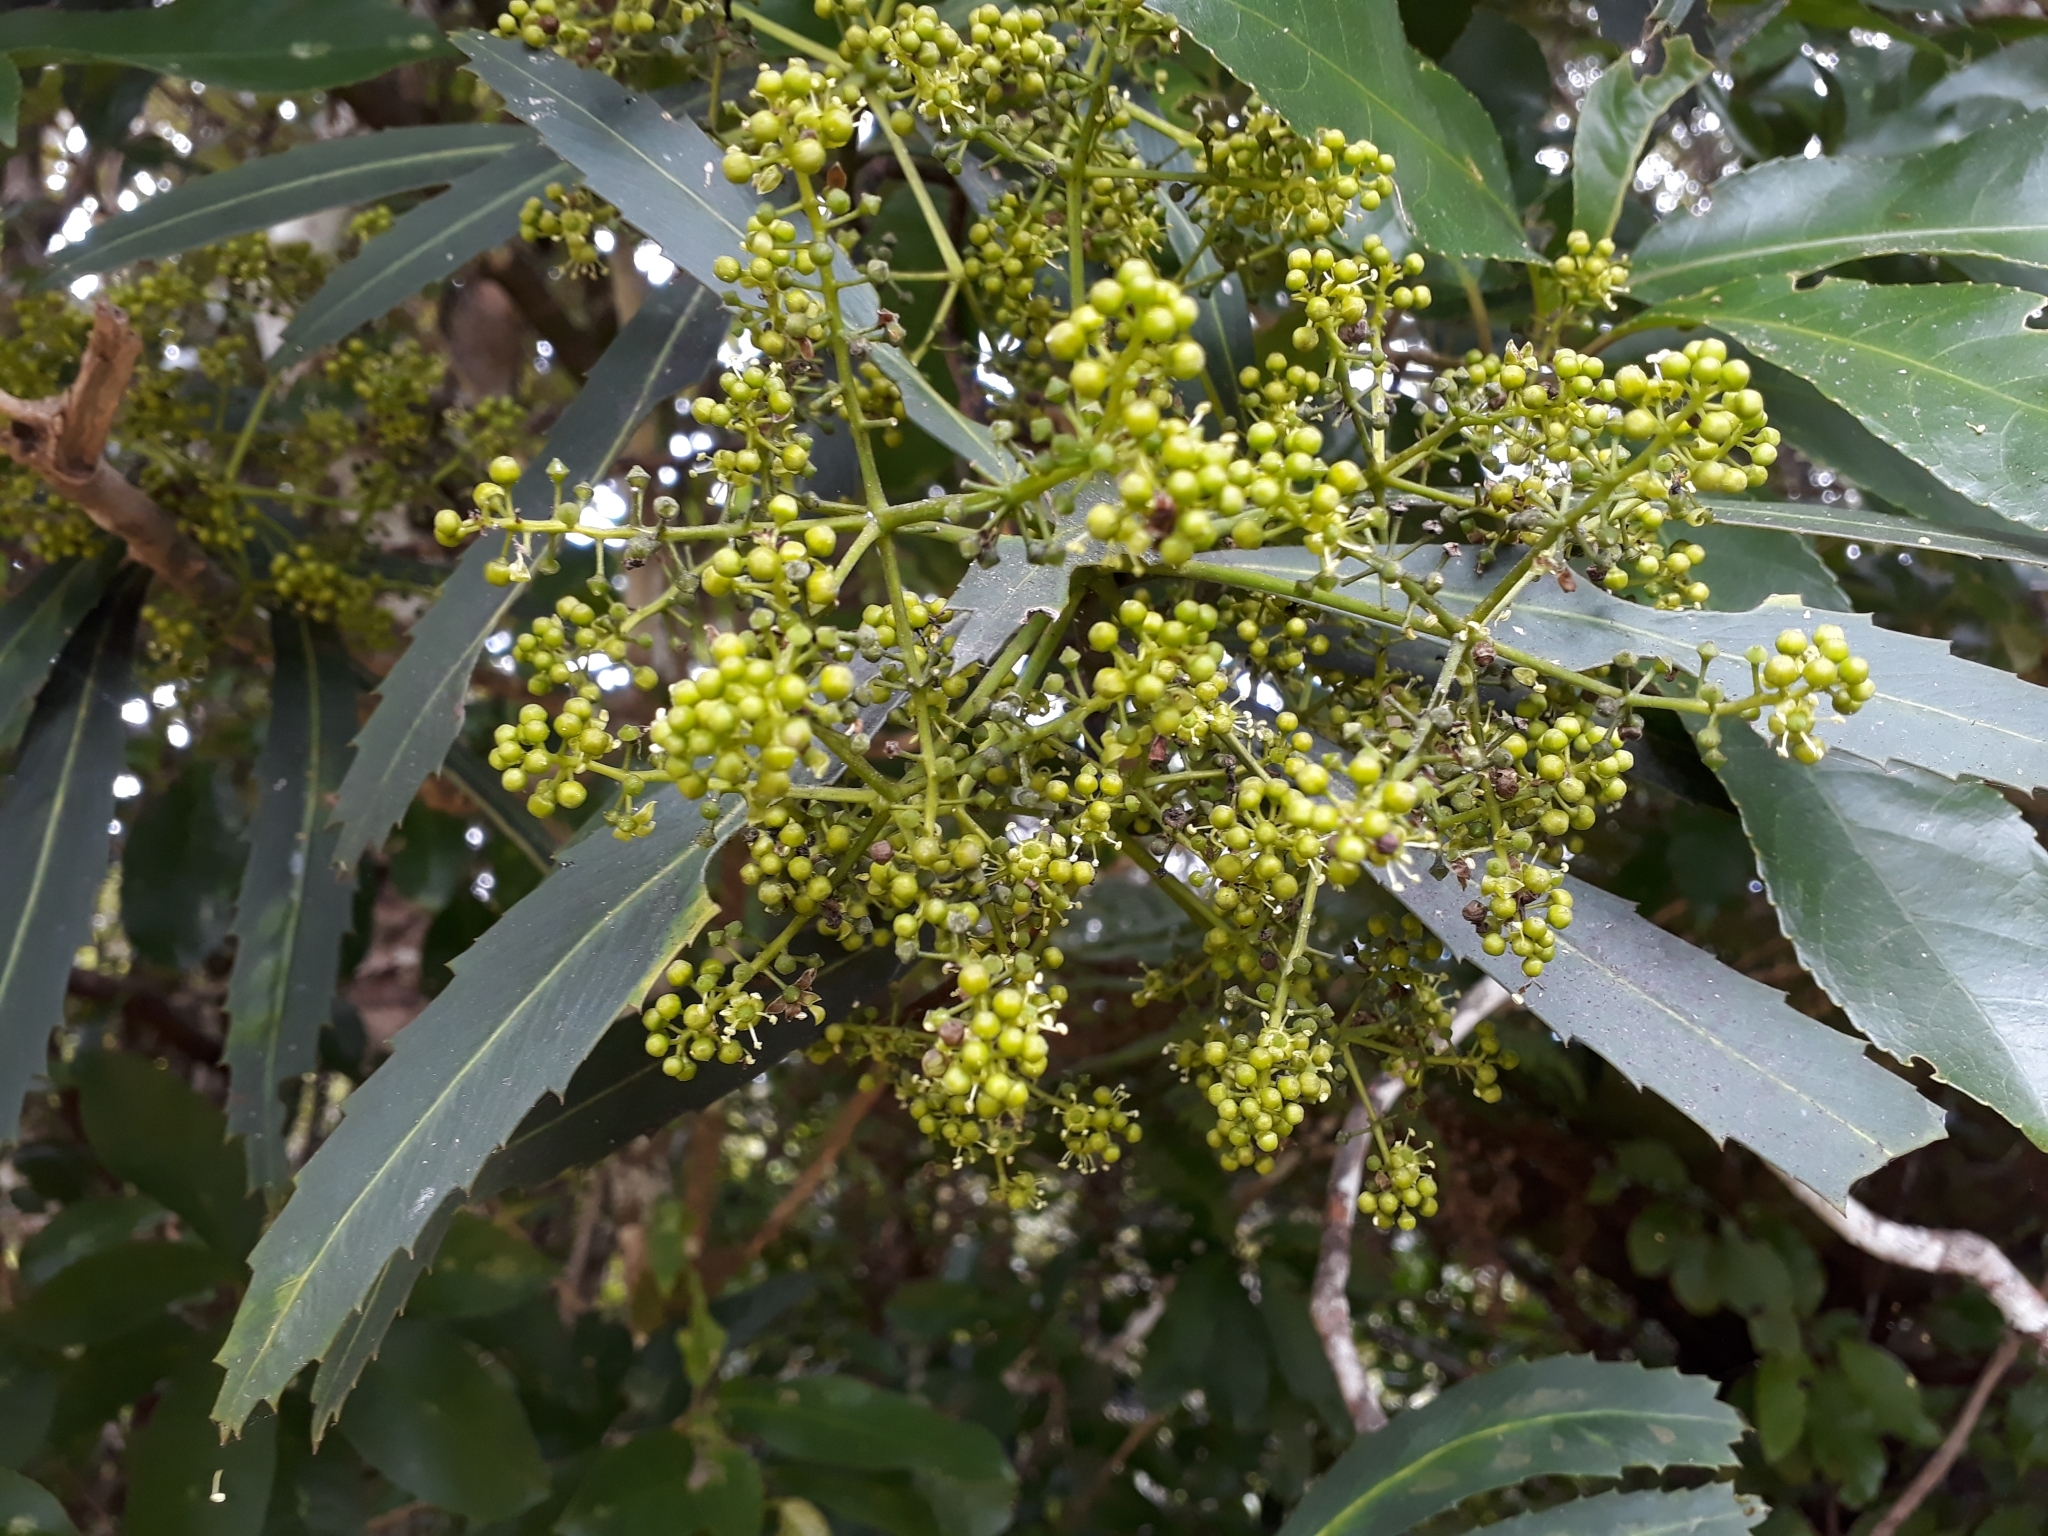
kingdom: Plantae
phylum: Tracheophyta
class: Magnoliopsida
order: Apiales
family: Araliaceae
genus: Pseudopanax
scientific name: Pseudopanax crassifolius
